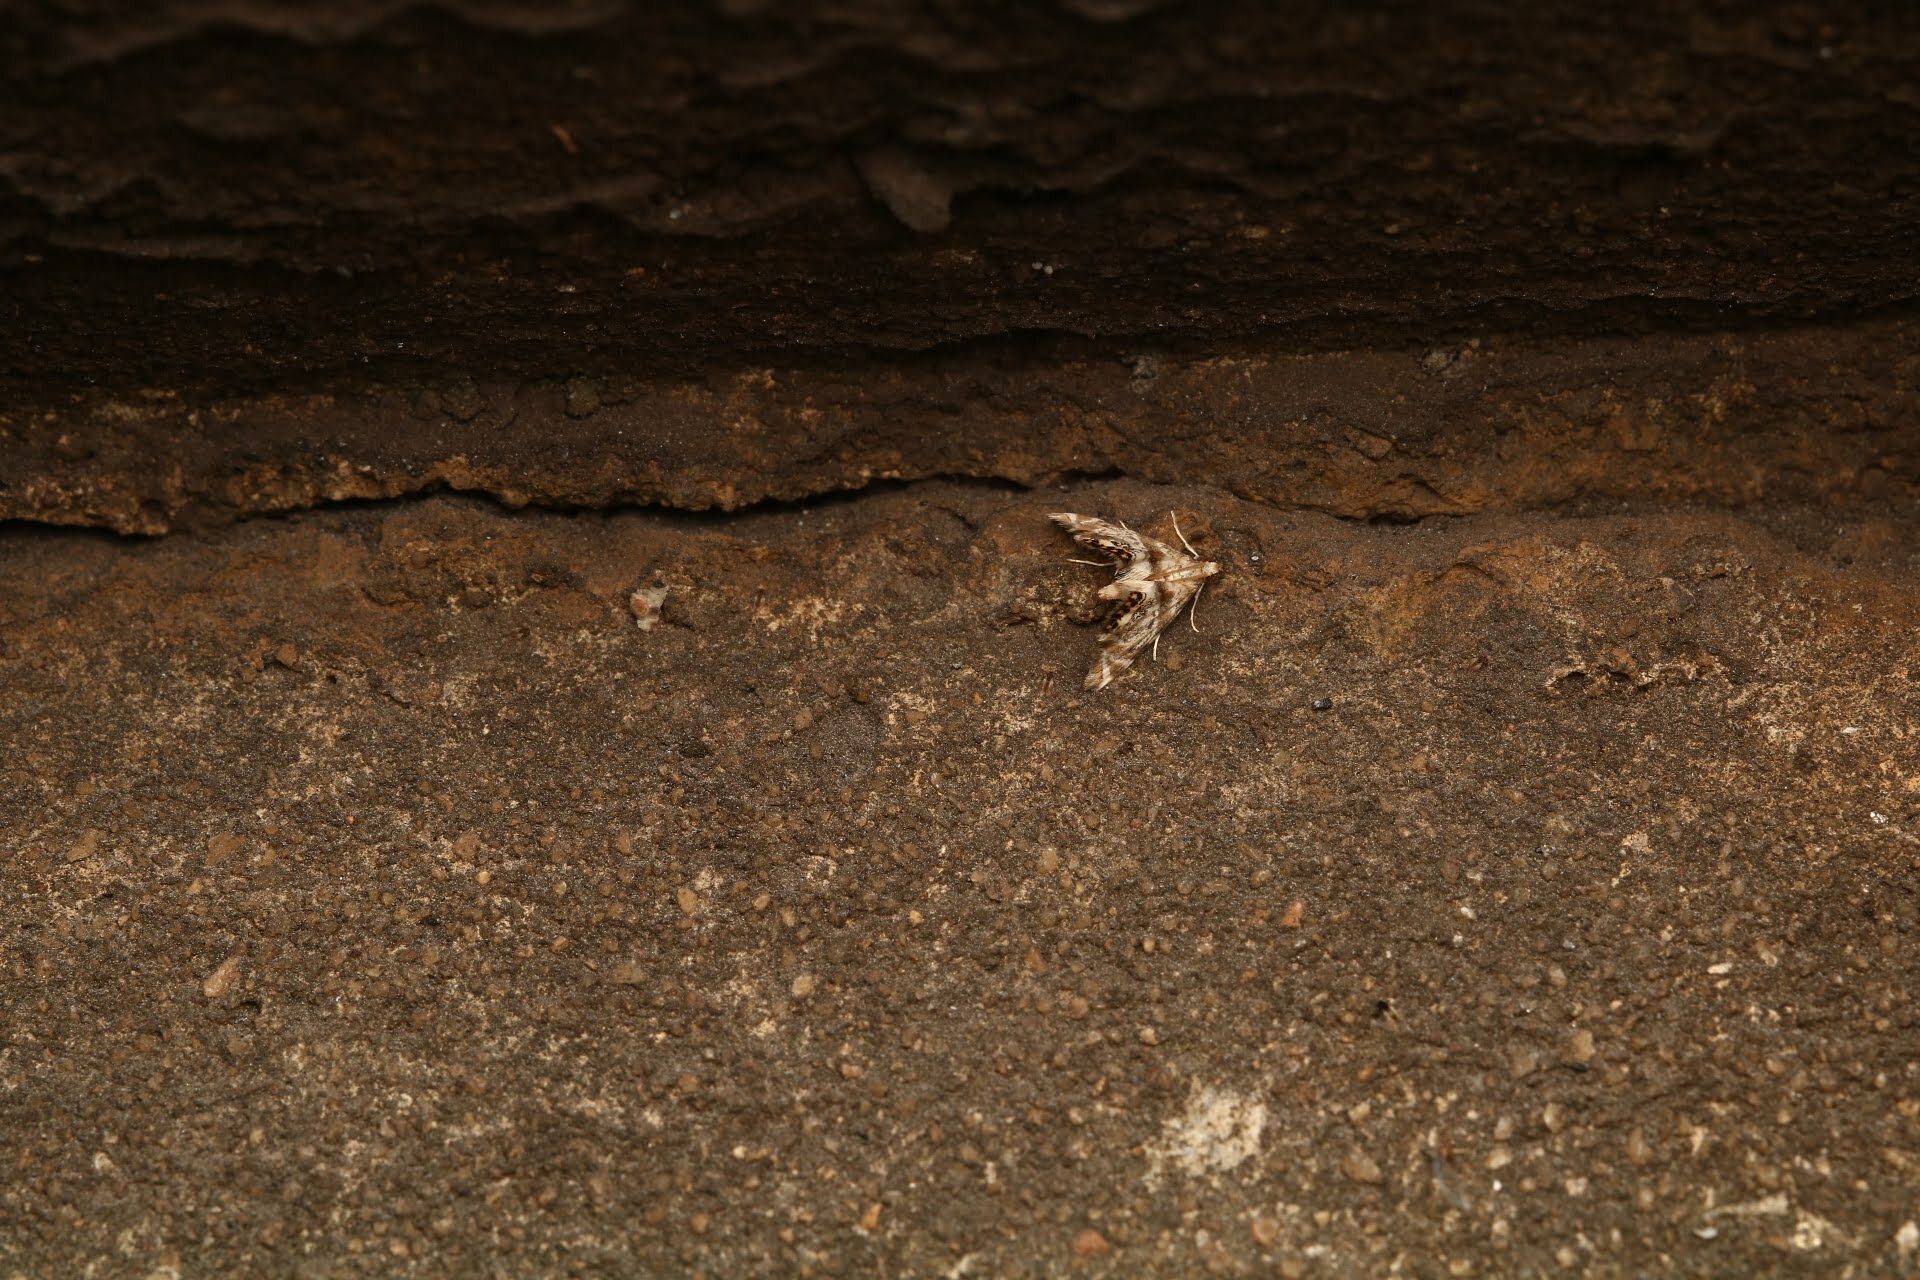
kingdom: Animalia
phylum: Arthropoda
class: Insecta
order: Lepidoptera
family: Crambidae
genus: Petrophila
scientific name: Petrophila fulicalis
